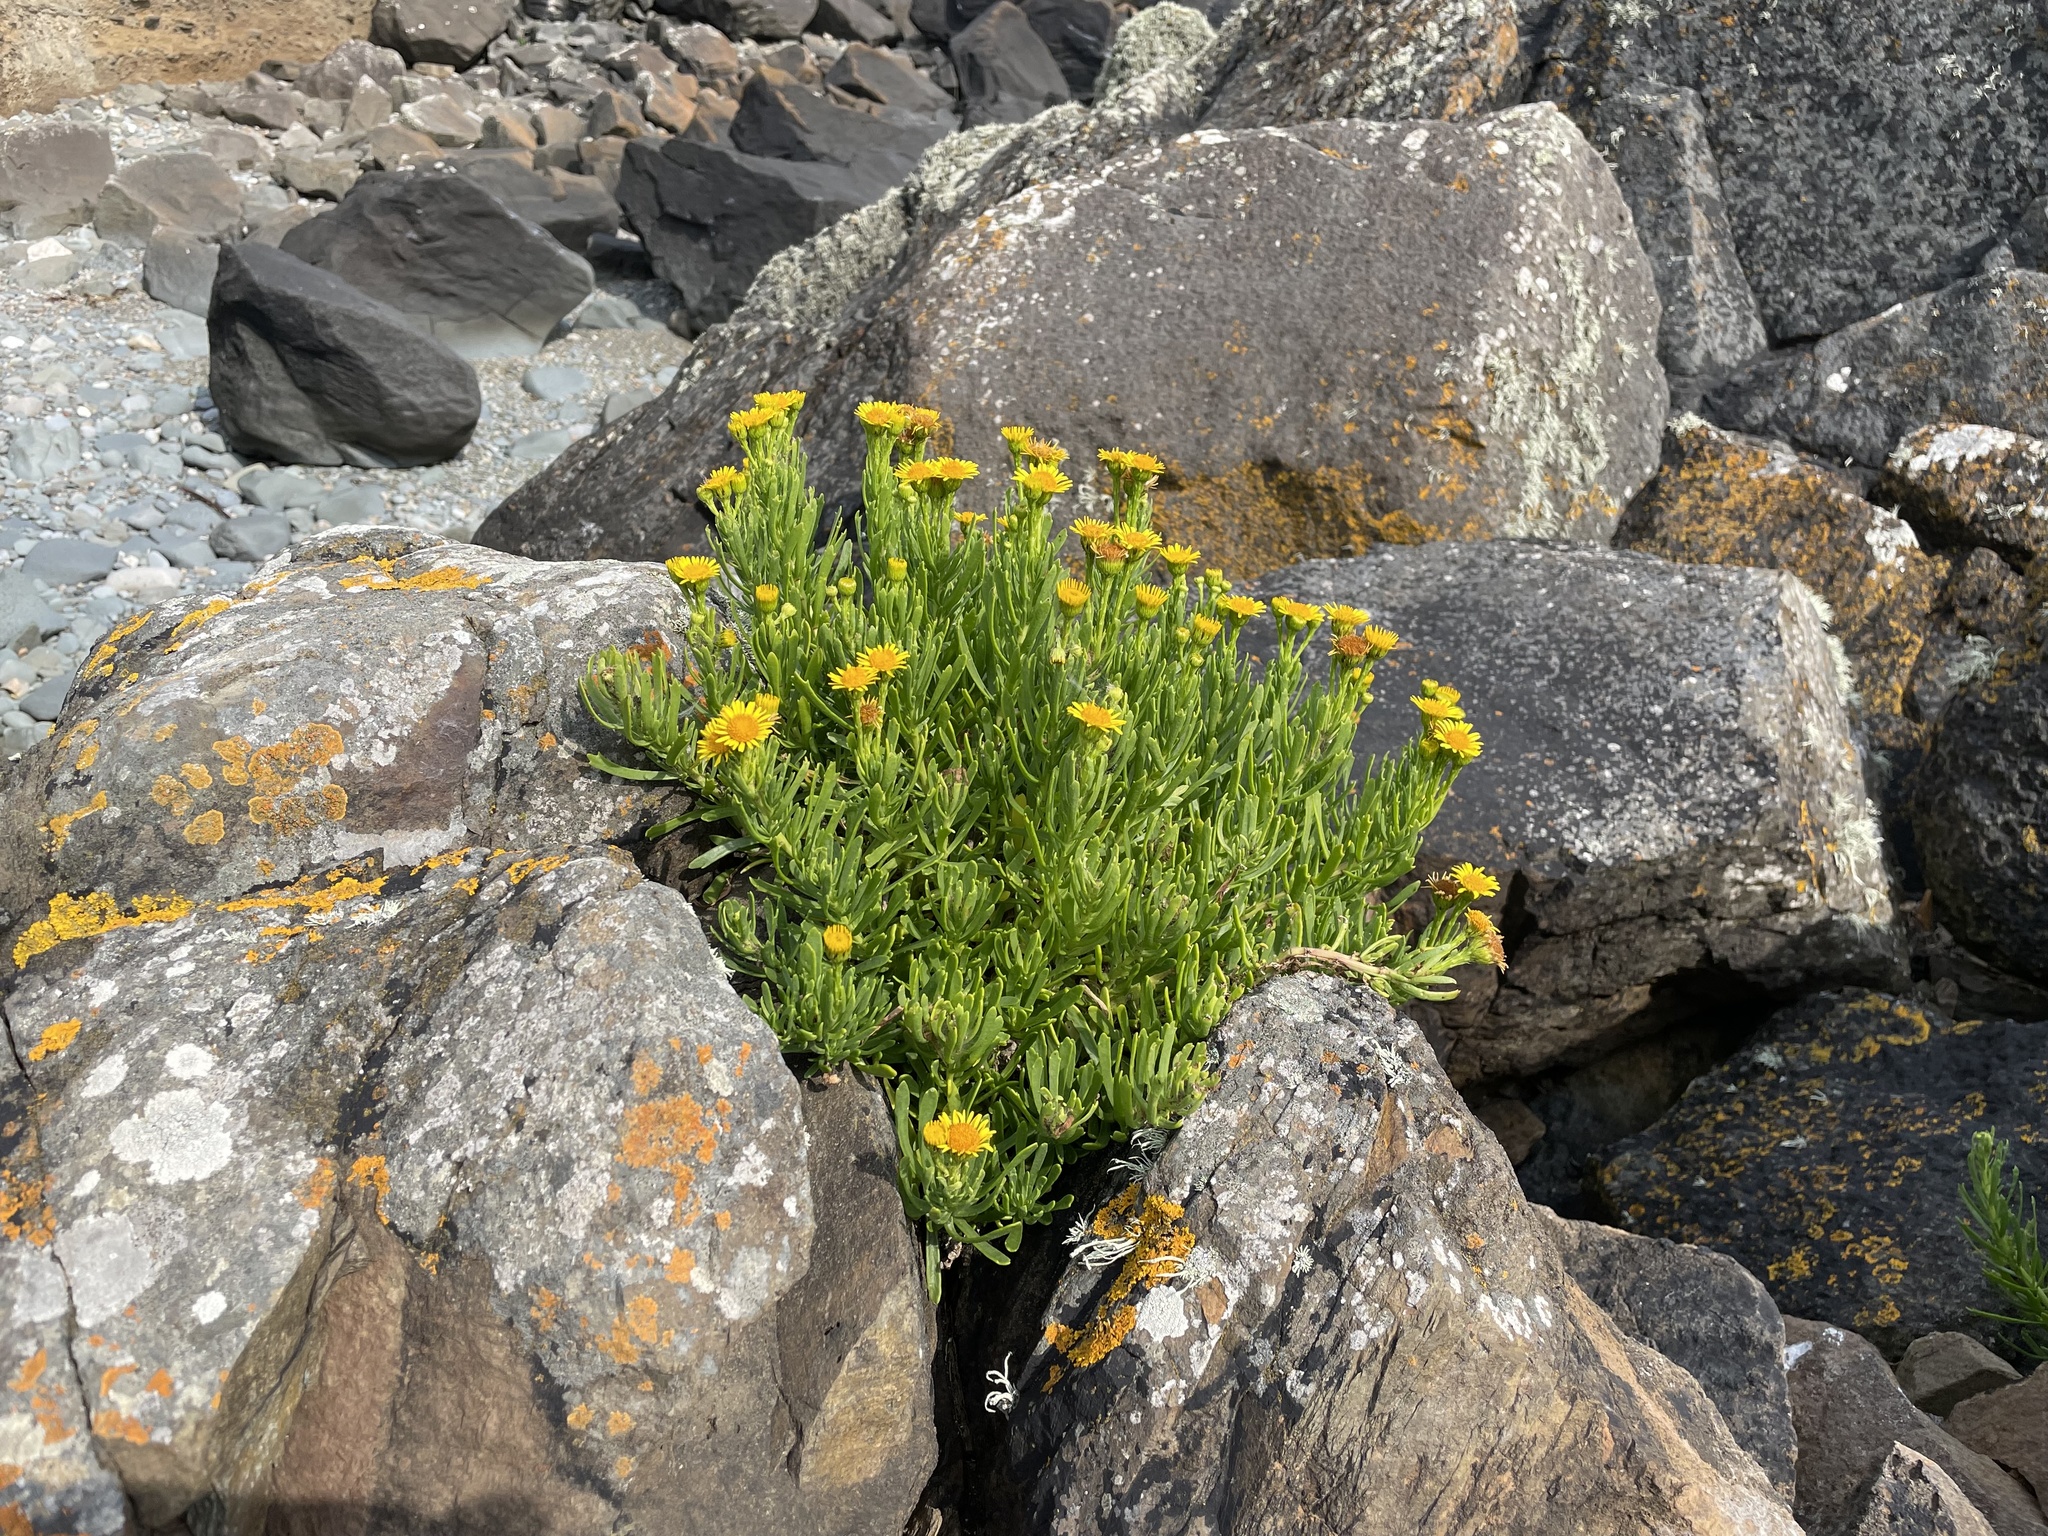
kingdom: Plantae
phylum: Tracheophyta
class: Magnoliopsida
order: Asterales
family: Asteraceae
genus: Limbarda
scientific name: Limbarda crithmoides
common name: Golden samphire
